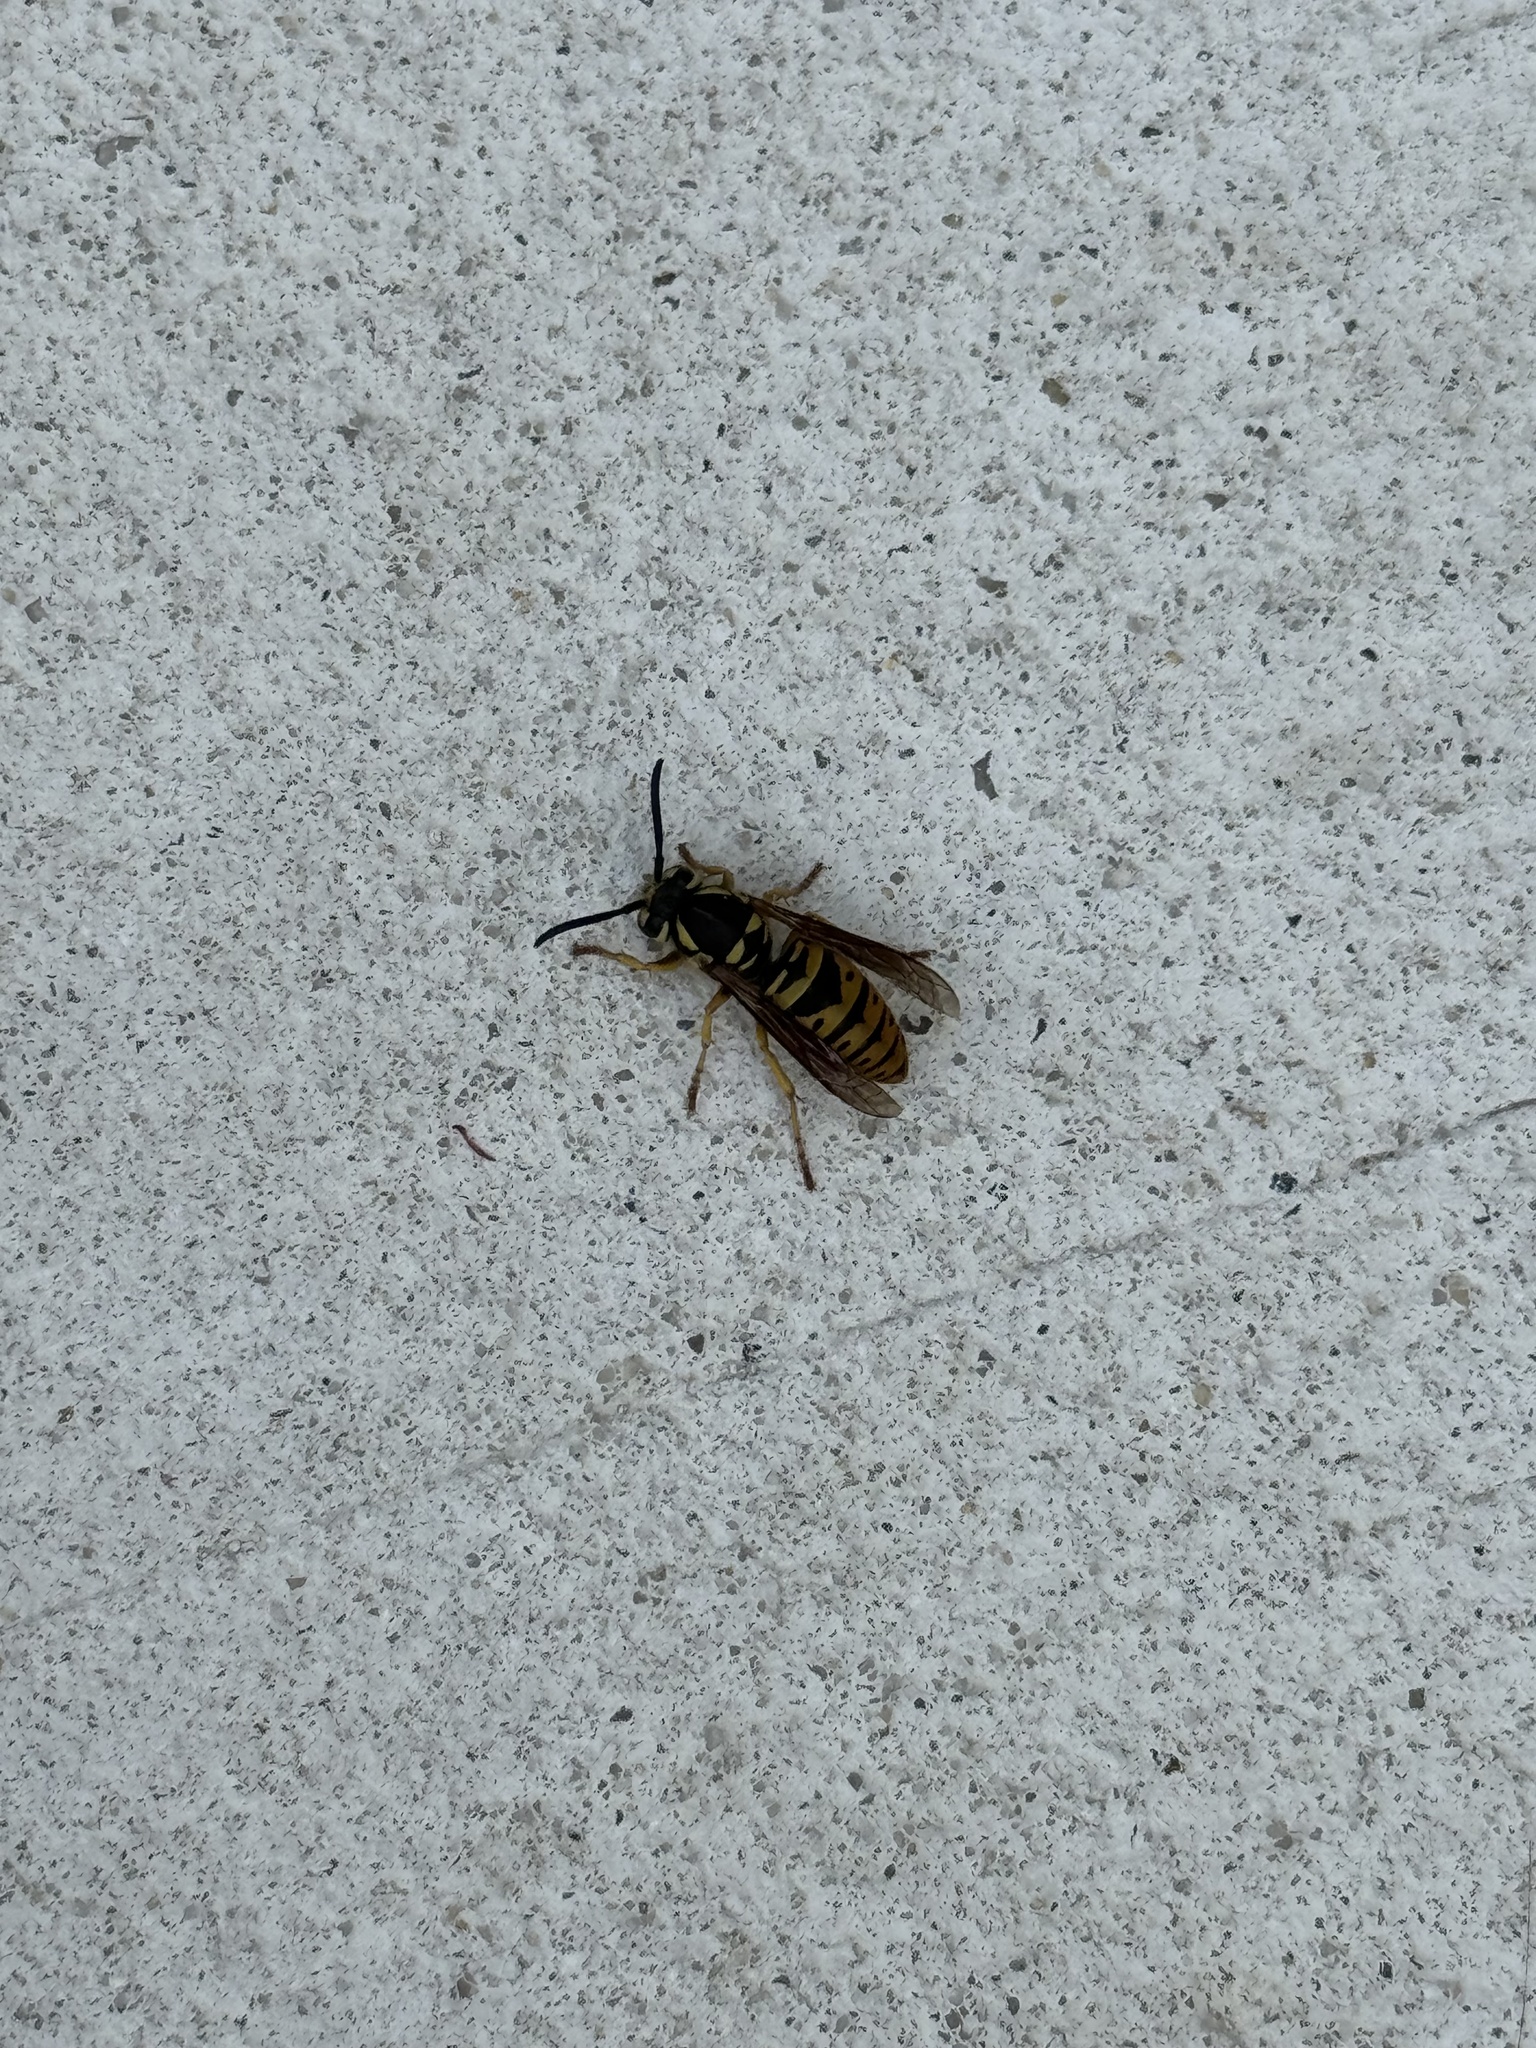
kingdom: Animalia
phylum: Arthropoda
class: Insecta
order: Hymenoptera
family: Vespidae
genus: Vespula
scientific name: Vespula maculifrons
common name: Eastern yellowjacket
